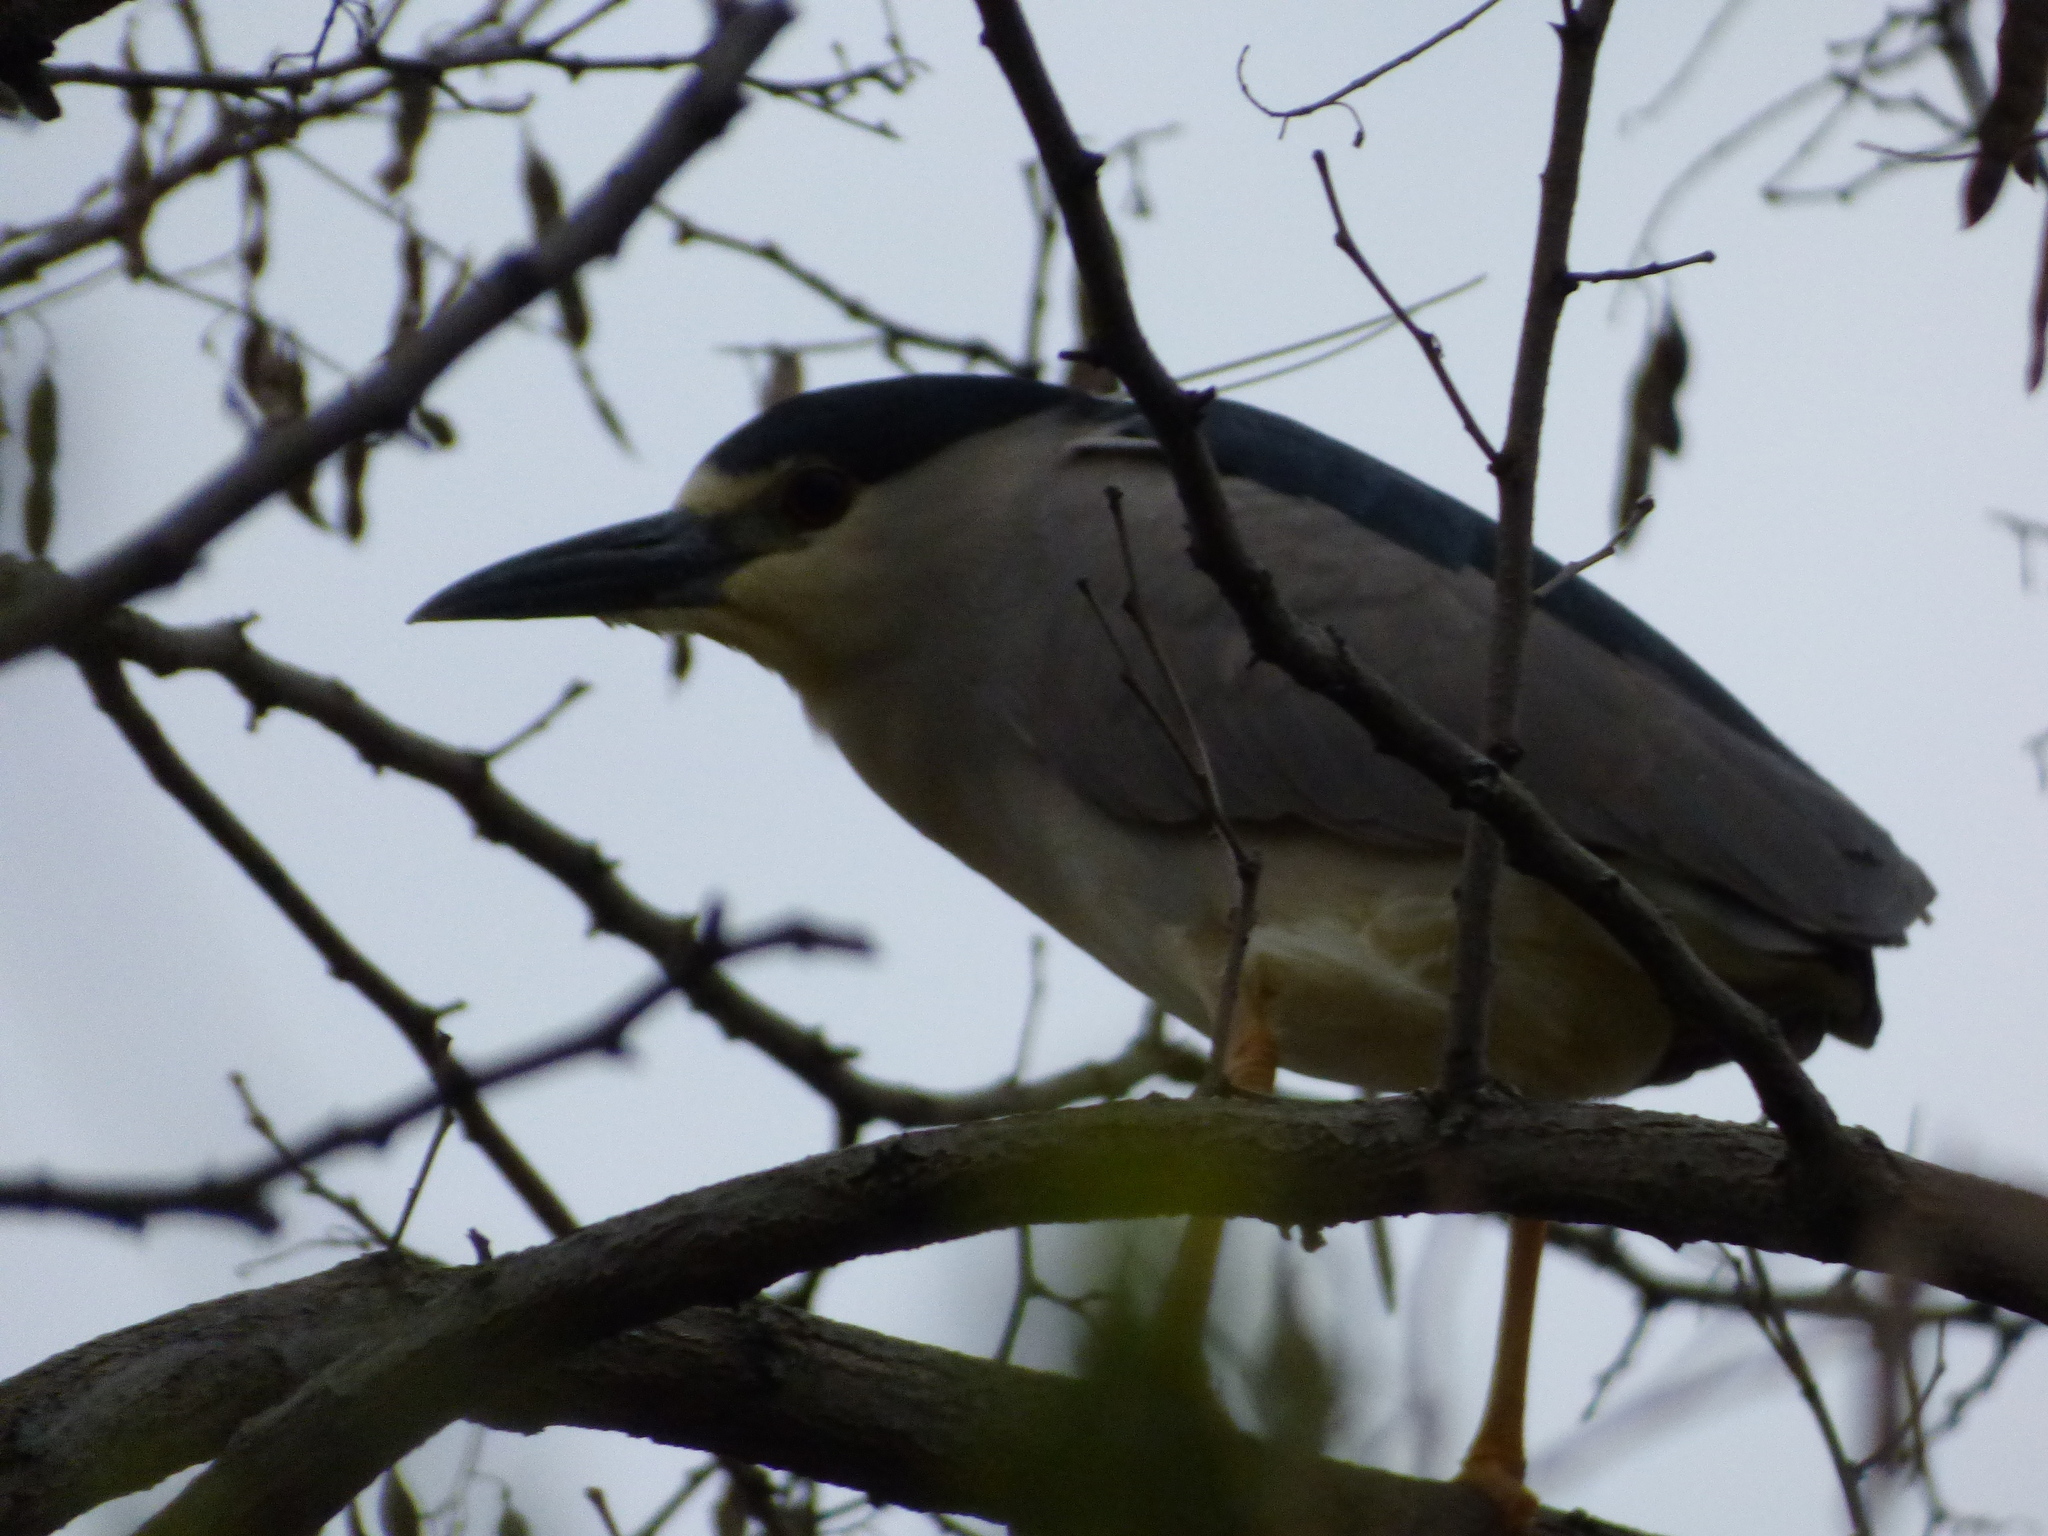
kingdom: Animalia
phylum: Chordata
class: Aves
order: Pelecaniformes
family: Ardeidae
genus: Nycticorax
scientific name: Nycticorax nycticorax
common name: Black-crowned night heron
